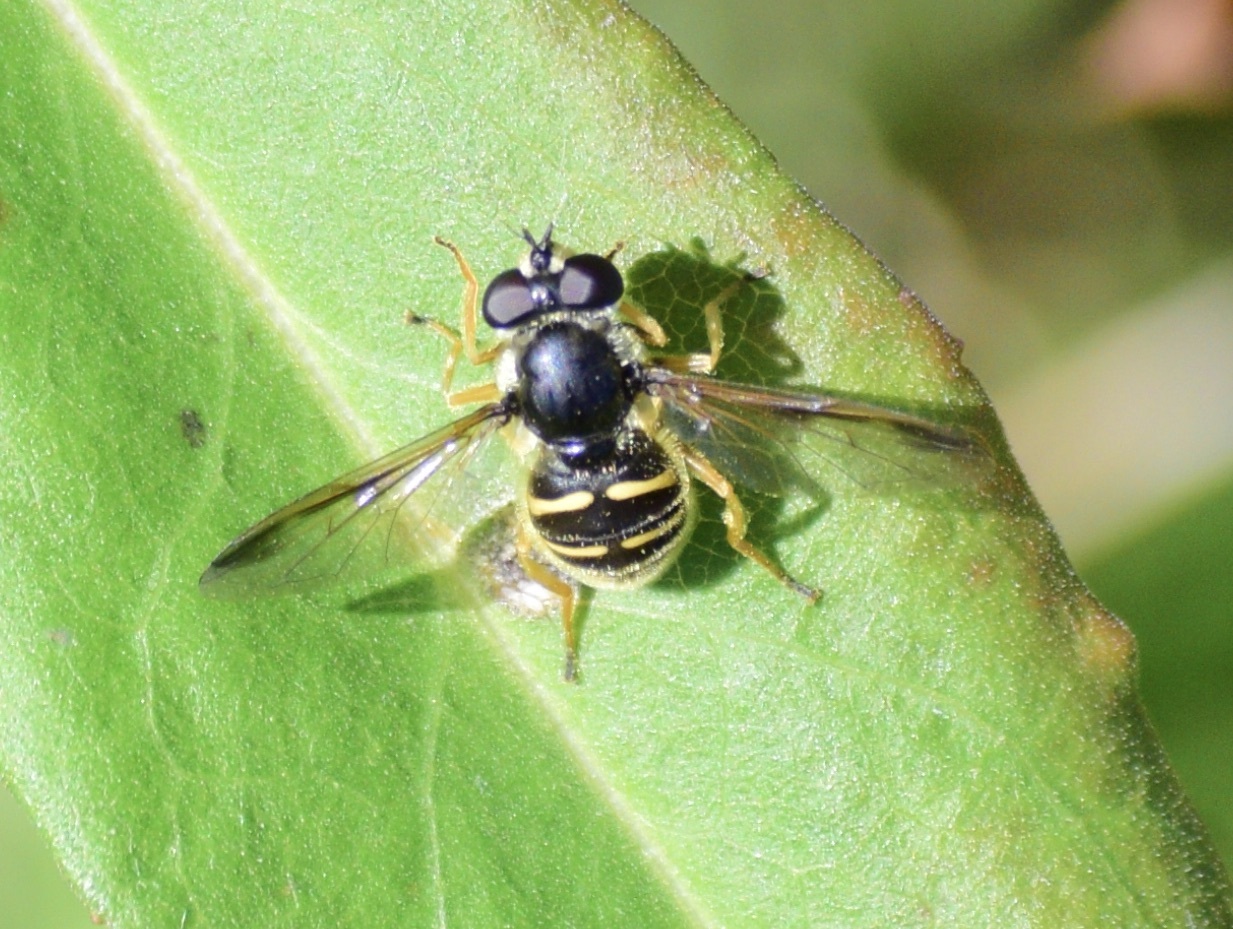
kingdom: Animalia
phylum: Arthropoda
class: Insecta
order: Diptera
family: Syrphidae
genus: Sericomyia
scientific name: Sericomyia chrysotoxoides
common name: Oblique-banded pond fly
